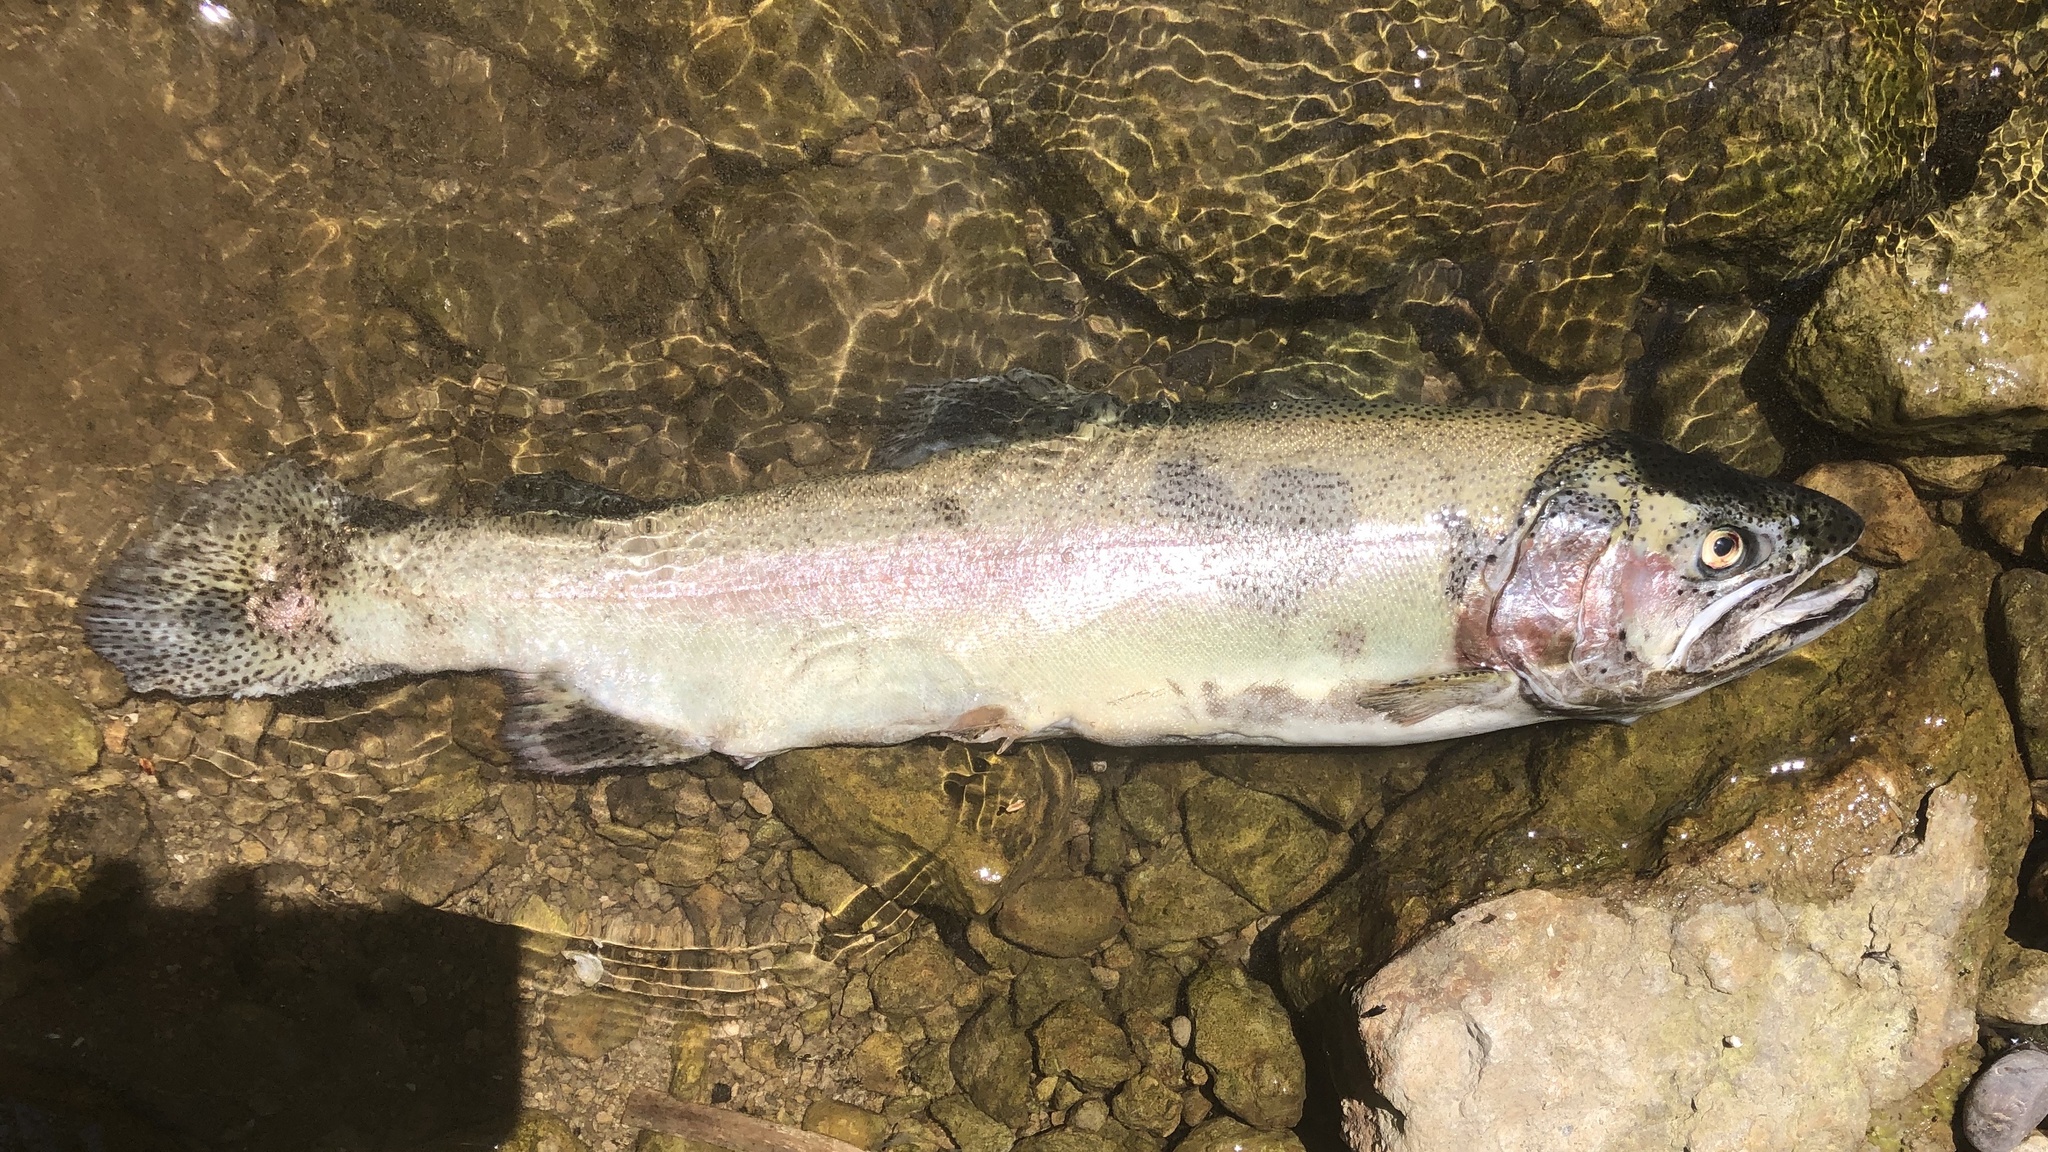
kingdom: Animalia
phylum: Chordata
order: Salmoniformes
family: Salmonidae
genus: Oncorhynchus
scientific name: Oncorhynchus mykiss
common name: Rainbow trout
